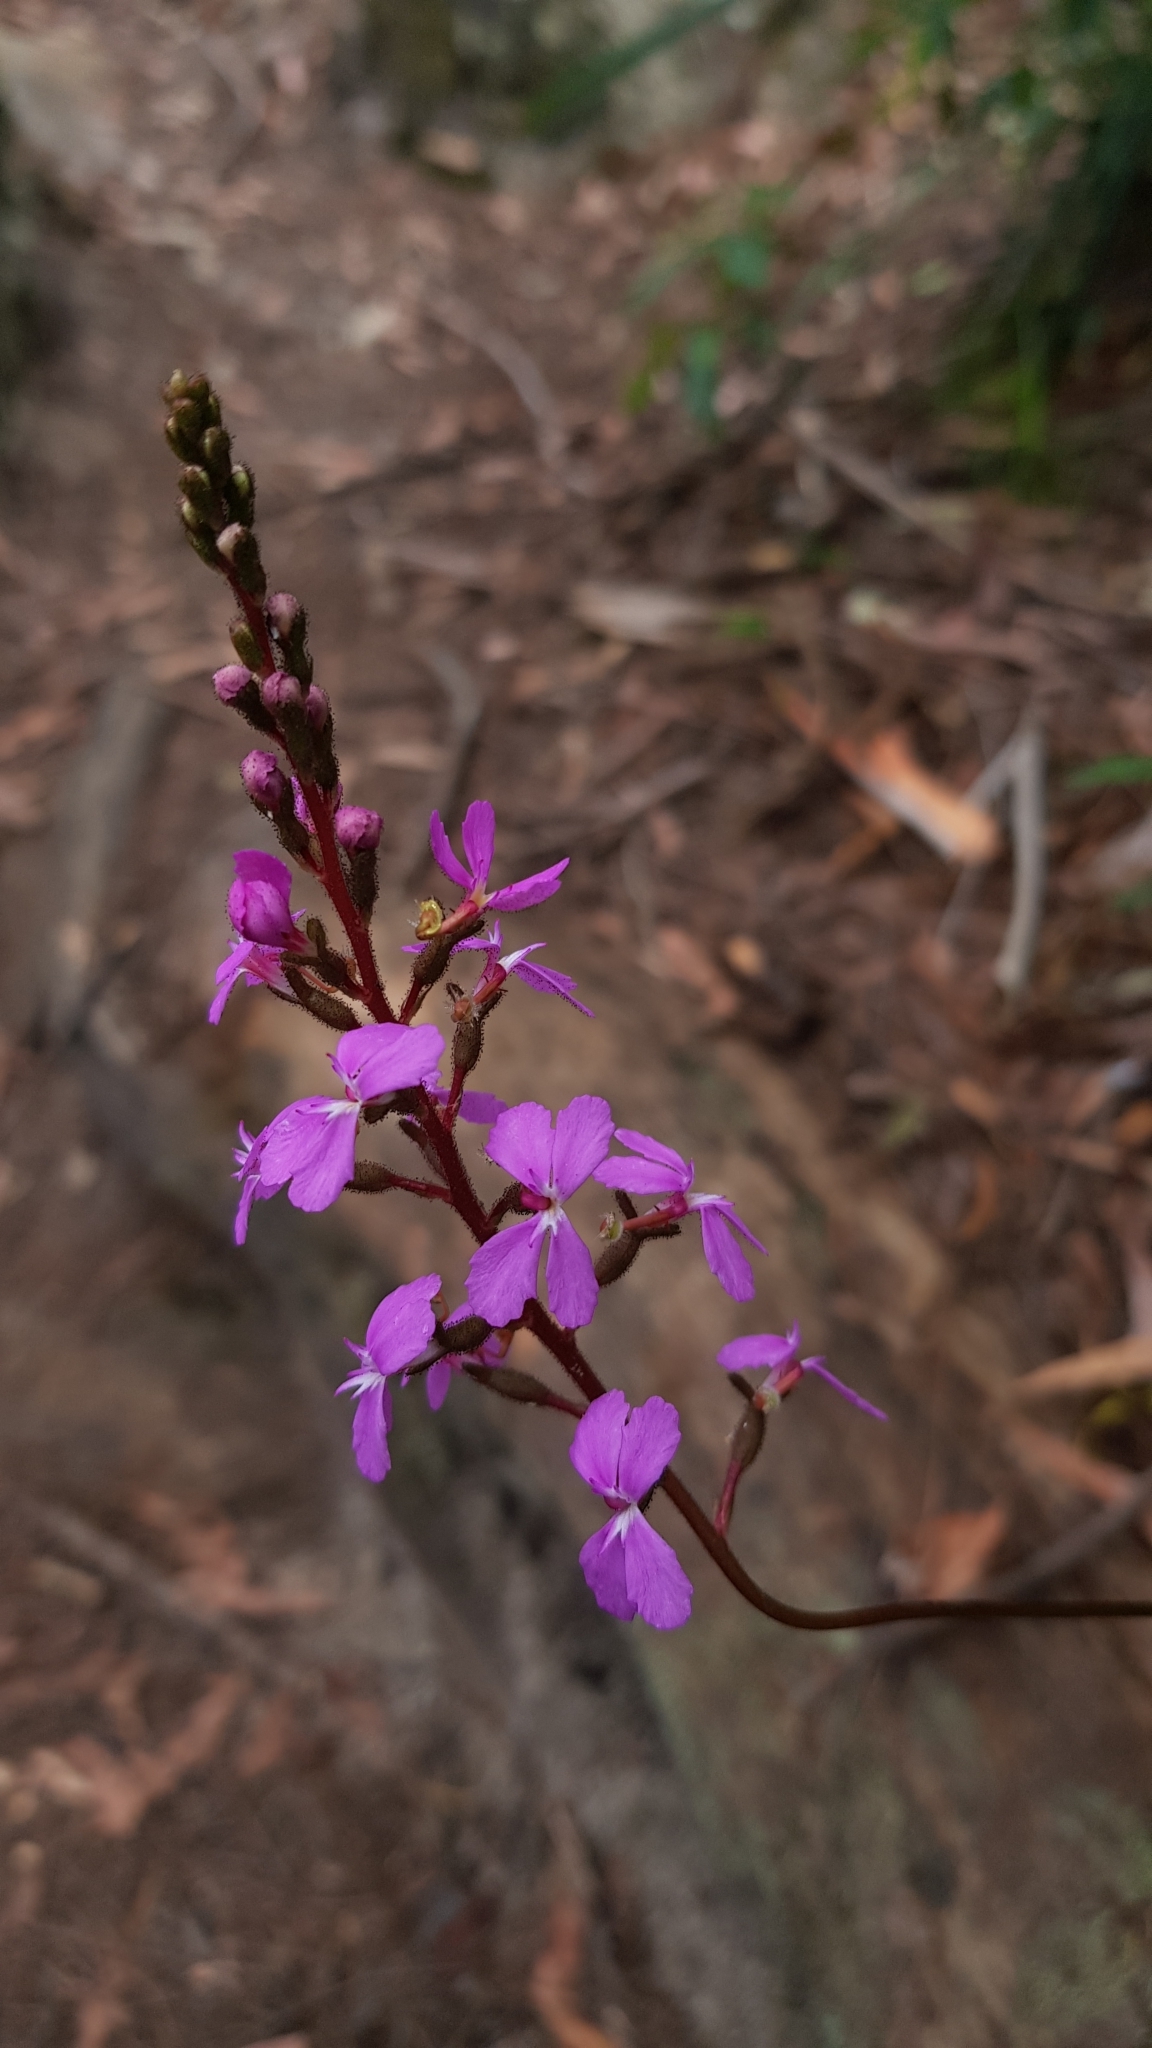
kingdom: Plantae
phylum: Tracheophyta
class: Magnoliopsida
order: Asterales
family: Stylidiaceae
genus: Stylidium
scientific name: Stylidium productum
